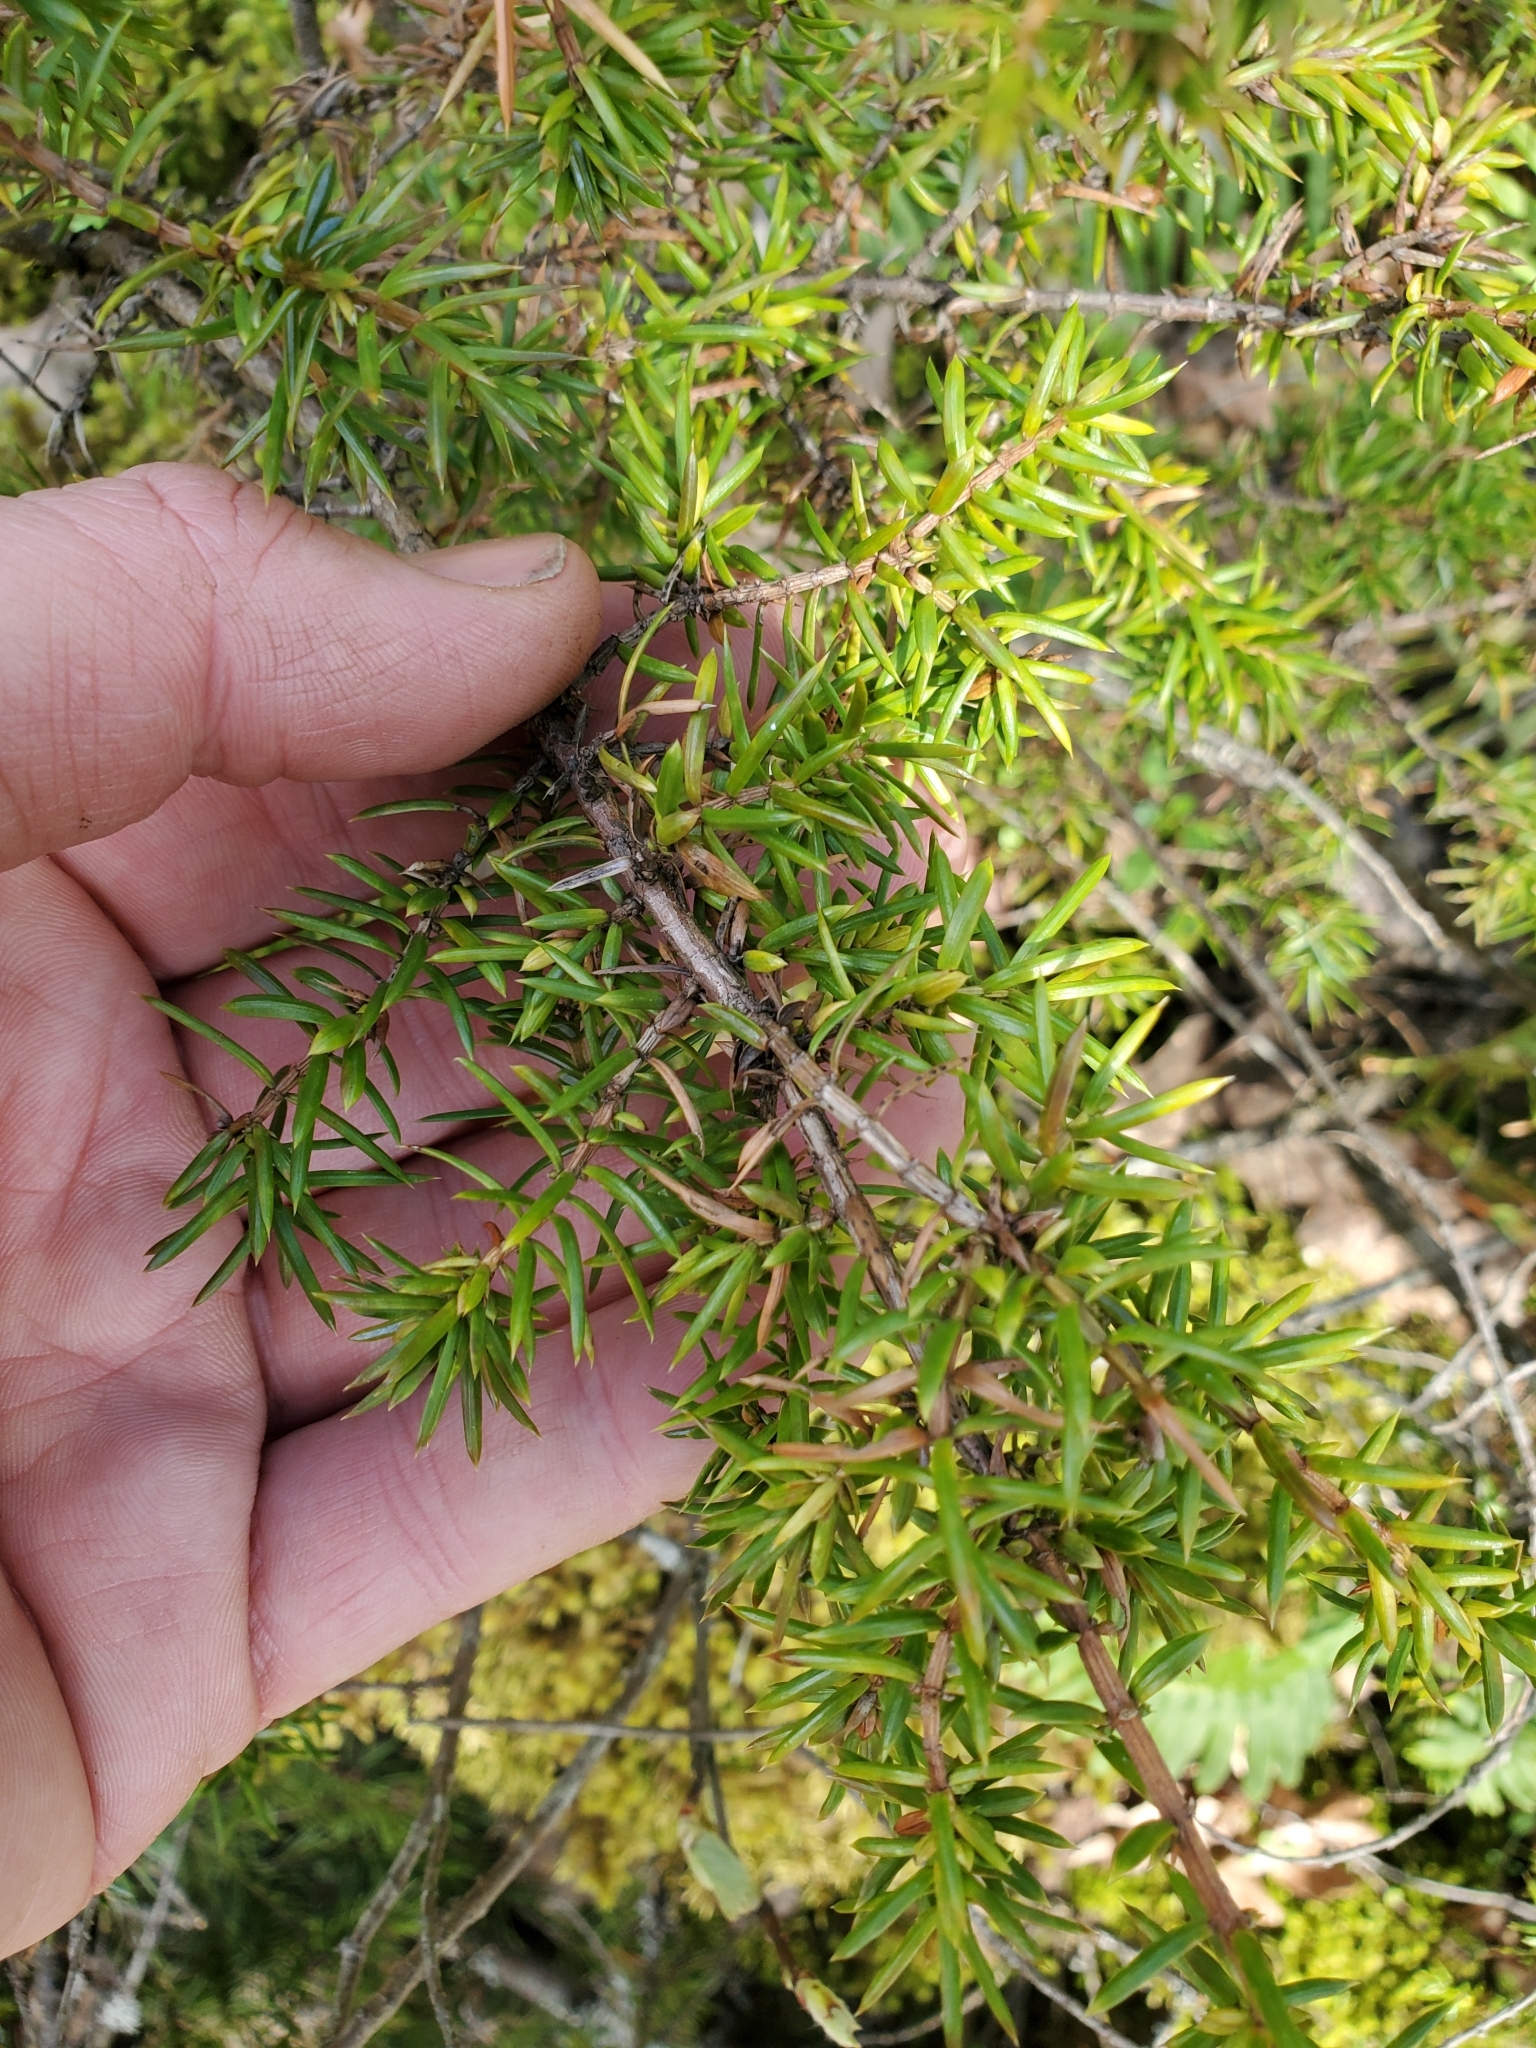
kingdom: Plantae
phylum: Tracheophyta
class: Pinopsida
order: Pinales
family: Cupressaceae
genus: Juniperus
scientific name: Juniperus communis
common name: Common juniper
